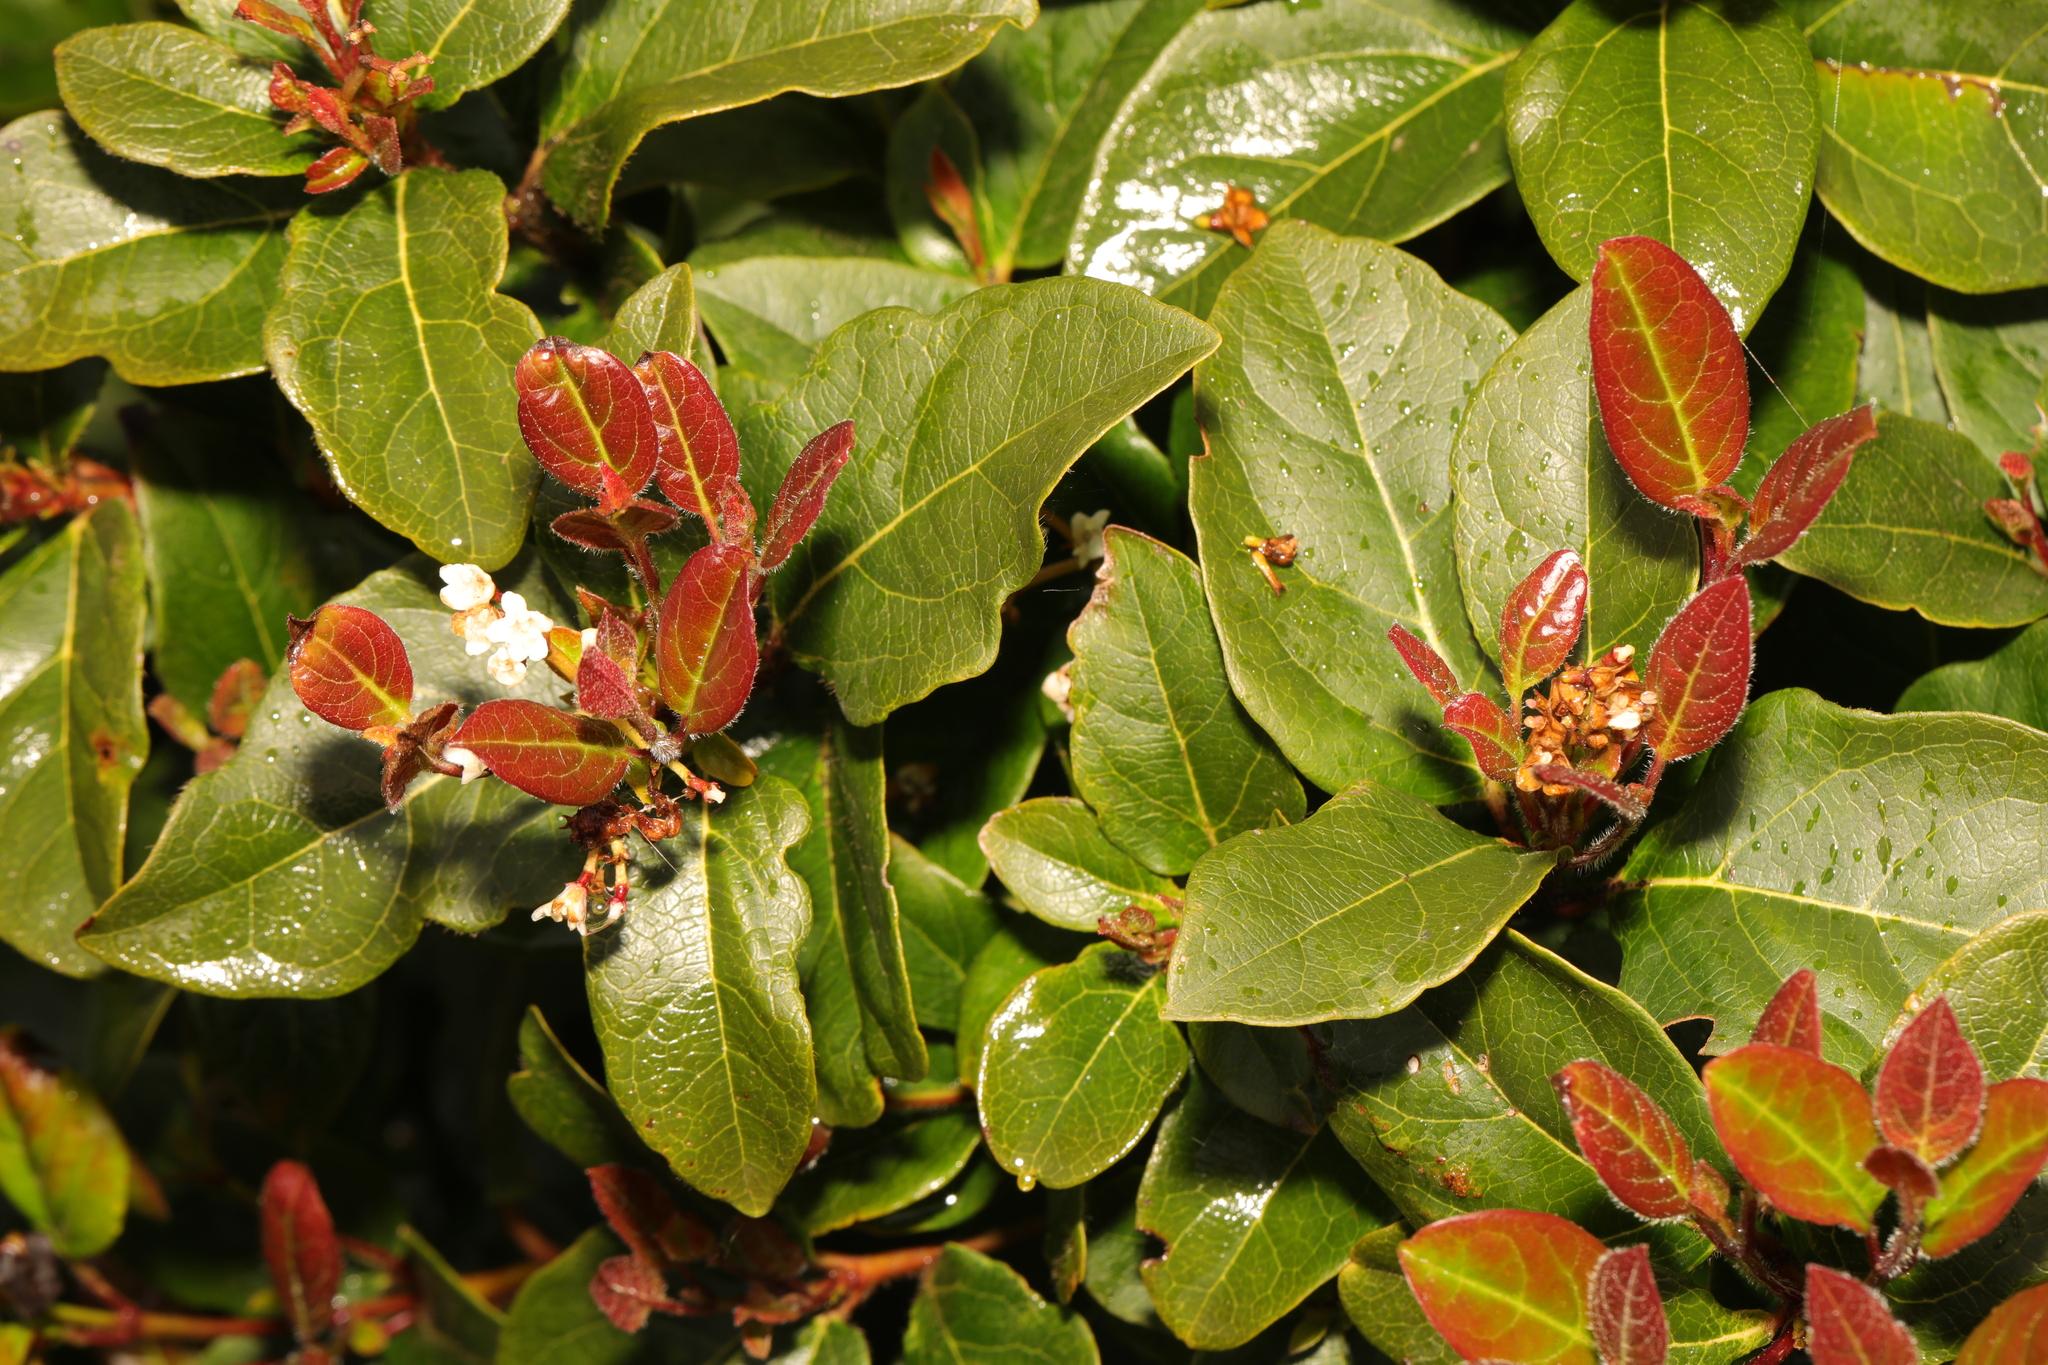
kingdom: Plantae
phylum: Tracheophyta
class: Magnoliopsida
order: Dipsacales
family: Viburnaceae
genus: Viburnum
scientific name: Viburnum tinus
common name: Laurustinus
